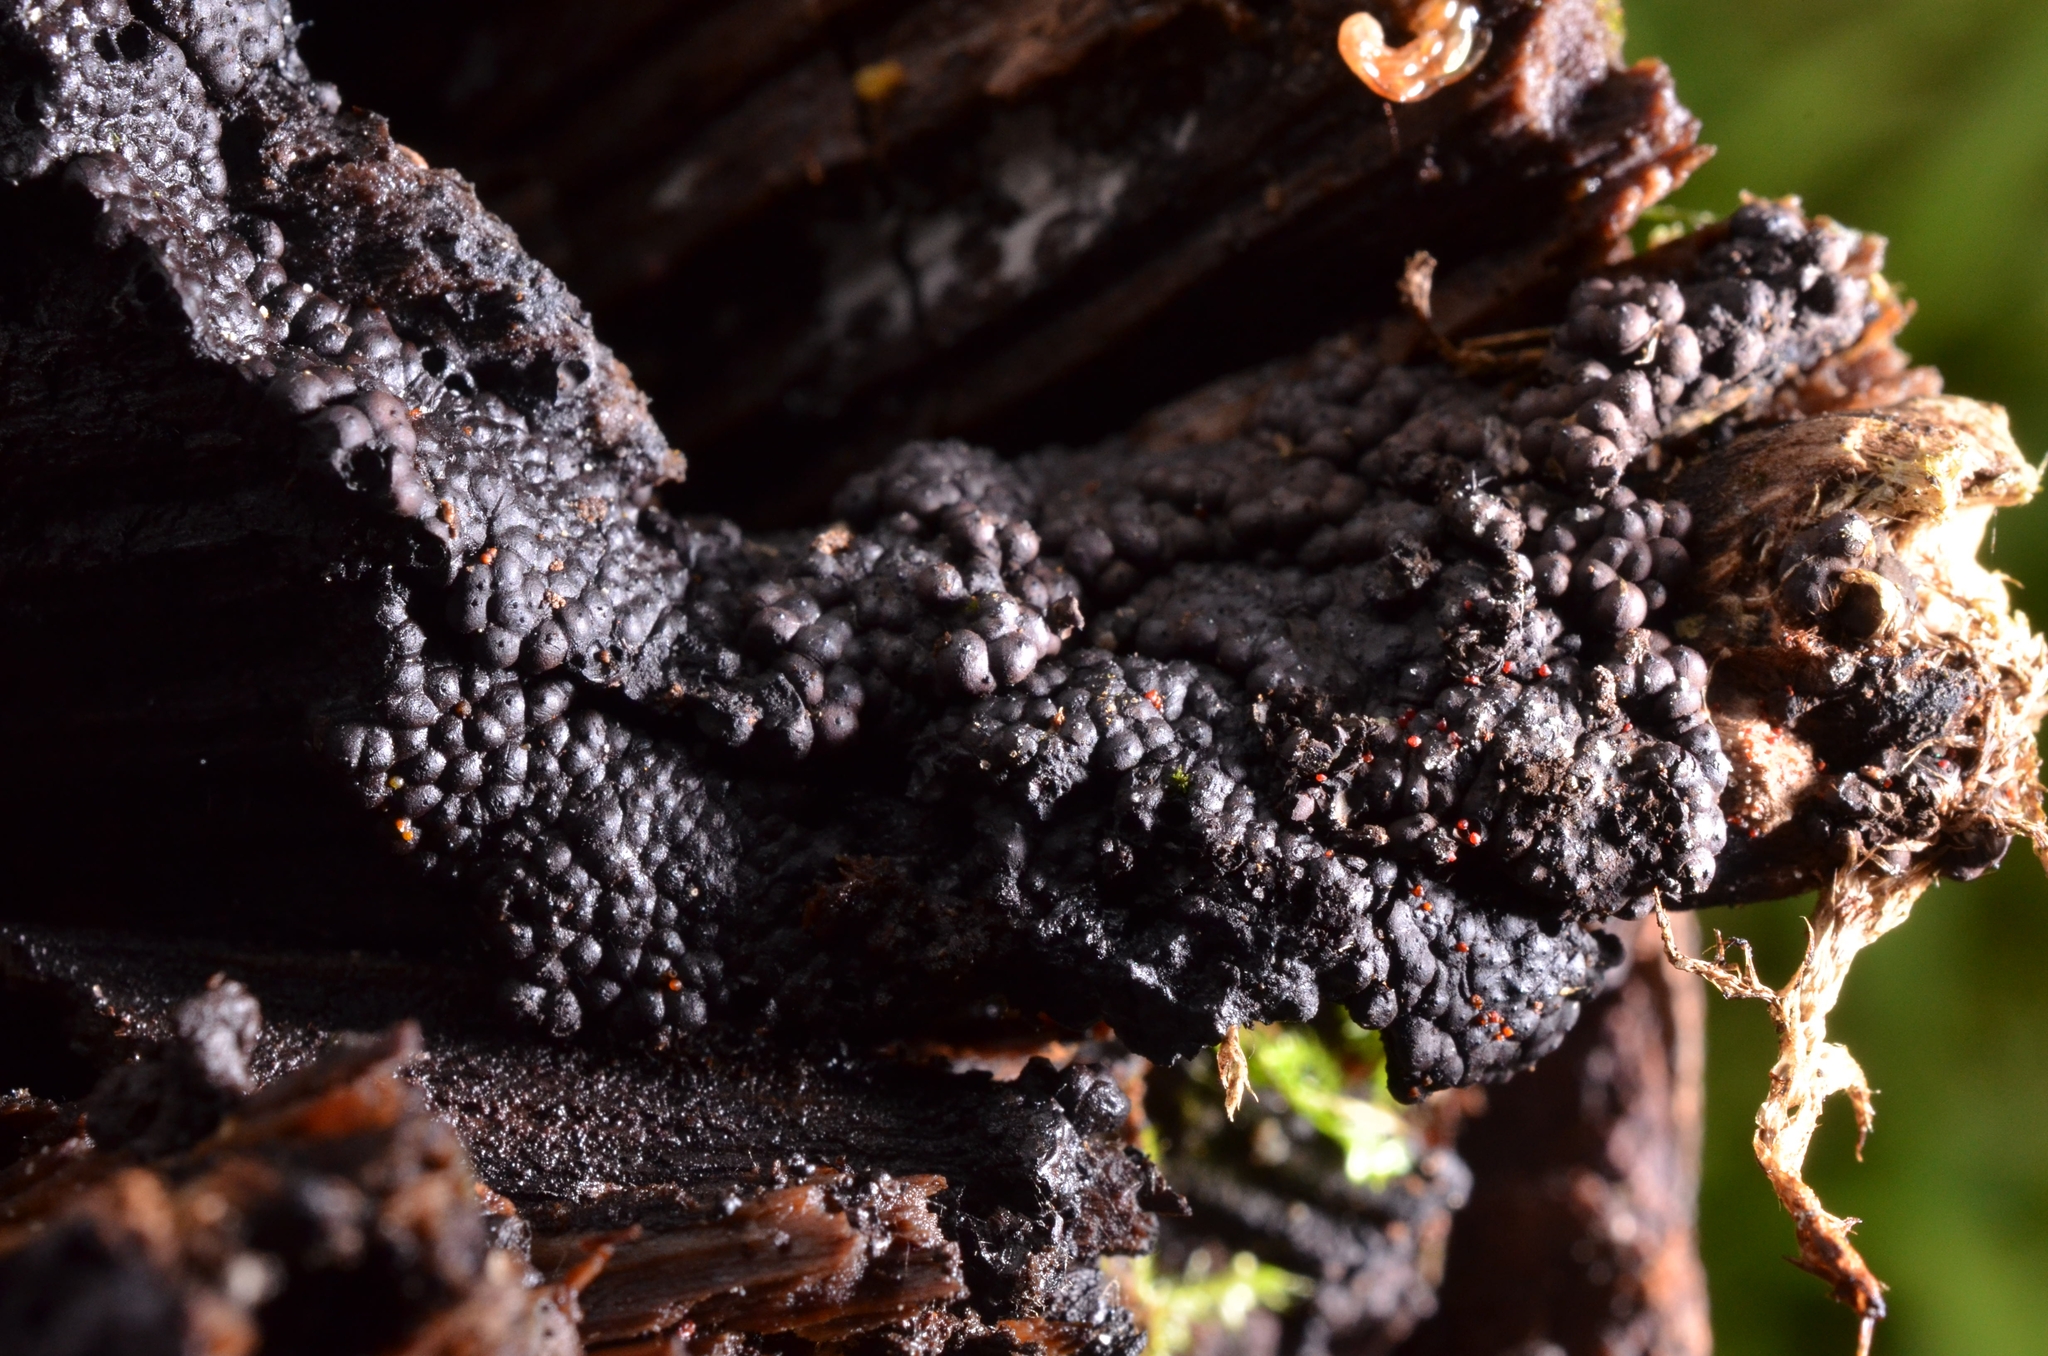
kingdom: Fungi
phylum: Ascomycota
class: Sordariomycetes
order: Xylariales
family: Hypoxylaceae
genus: Jackrogersella
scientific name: Jackrogersella multiformis
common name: Birch woodwart
